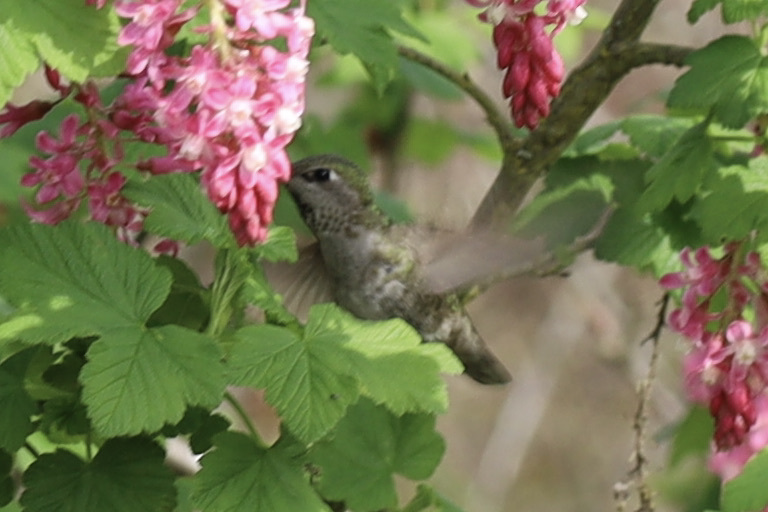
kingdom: Animalia
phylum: Chordata
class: Aves
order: Apodiformes
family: Trochilidae
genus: Calypte
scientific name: Calypte anna
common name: Anna's hummingbird
